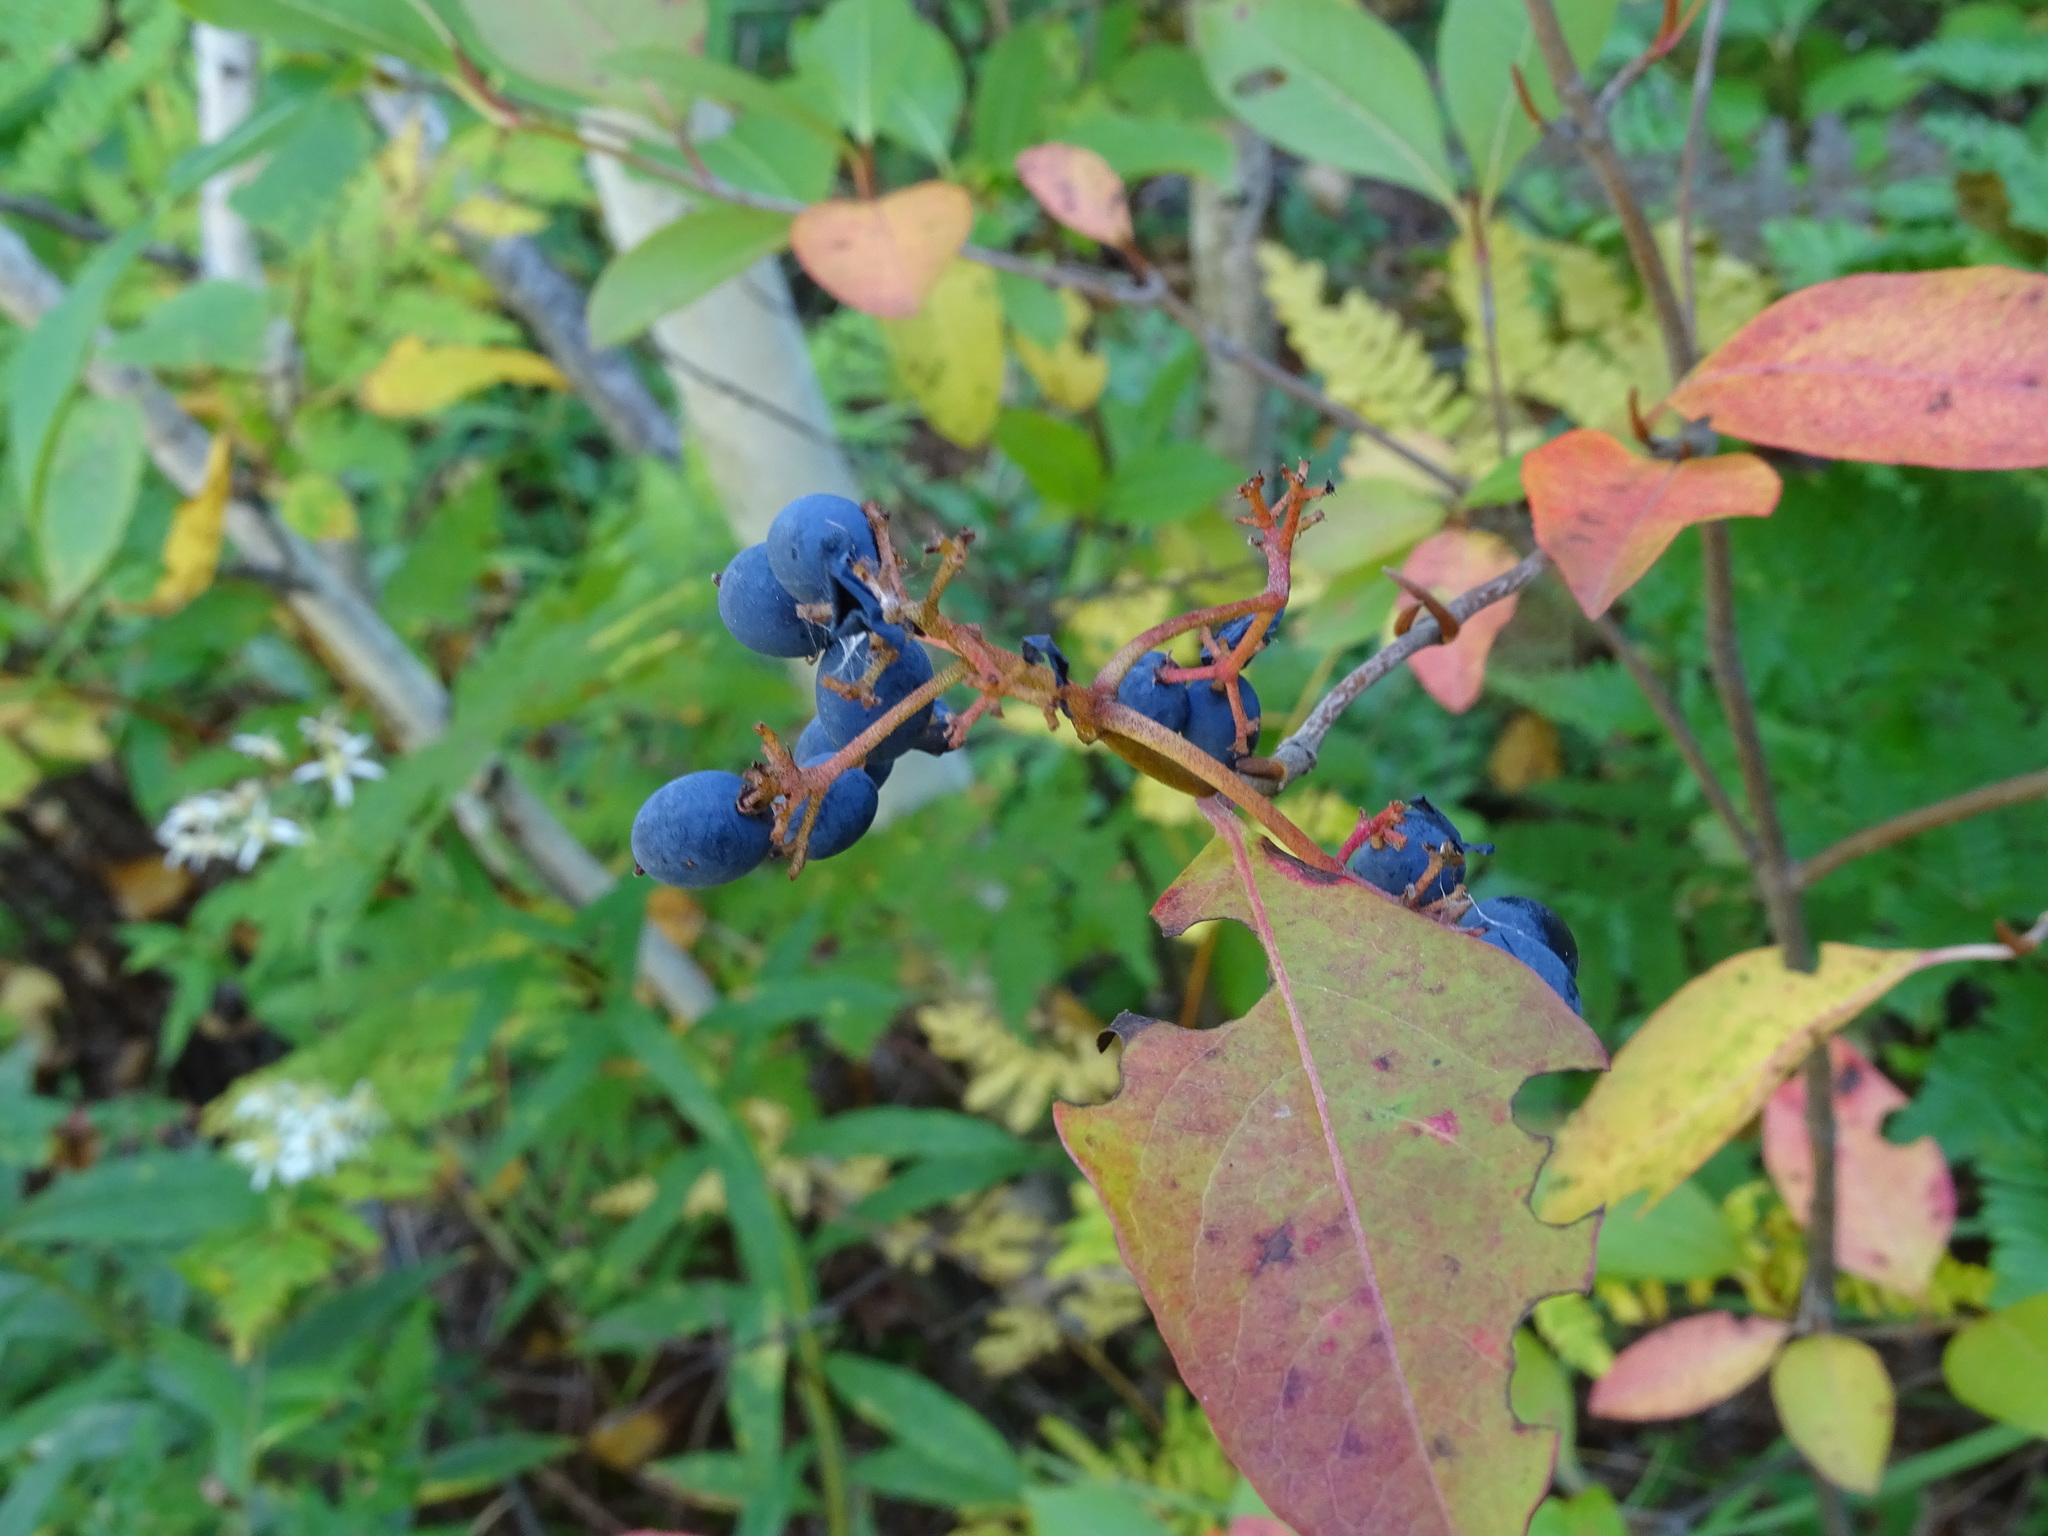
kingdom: Plantae
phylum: Tracheophyta
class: Magnoliopsida
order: Dipsacales
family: Viburnaceae
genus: Viburnum
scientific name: Viburnum cassinoides
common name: Swamp haw
